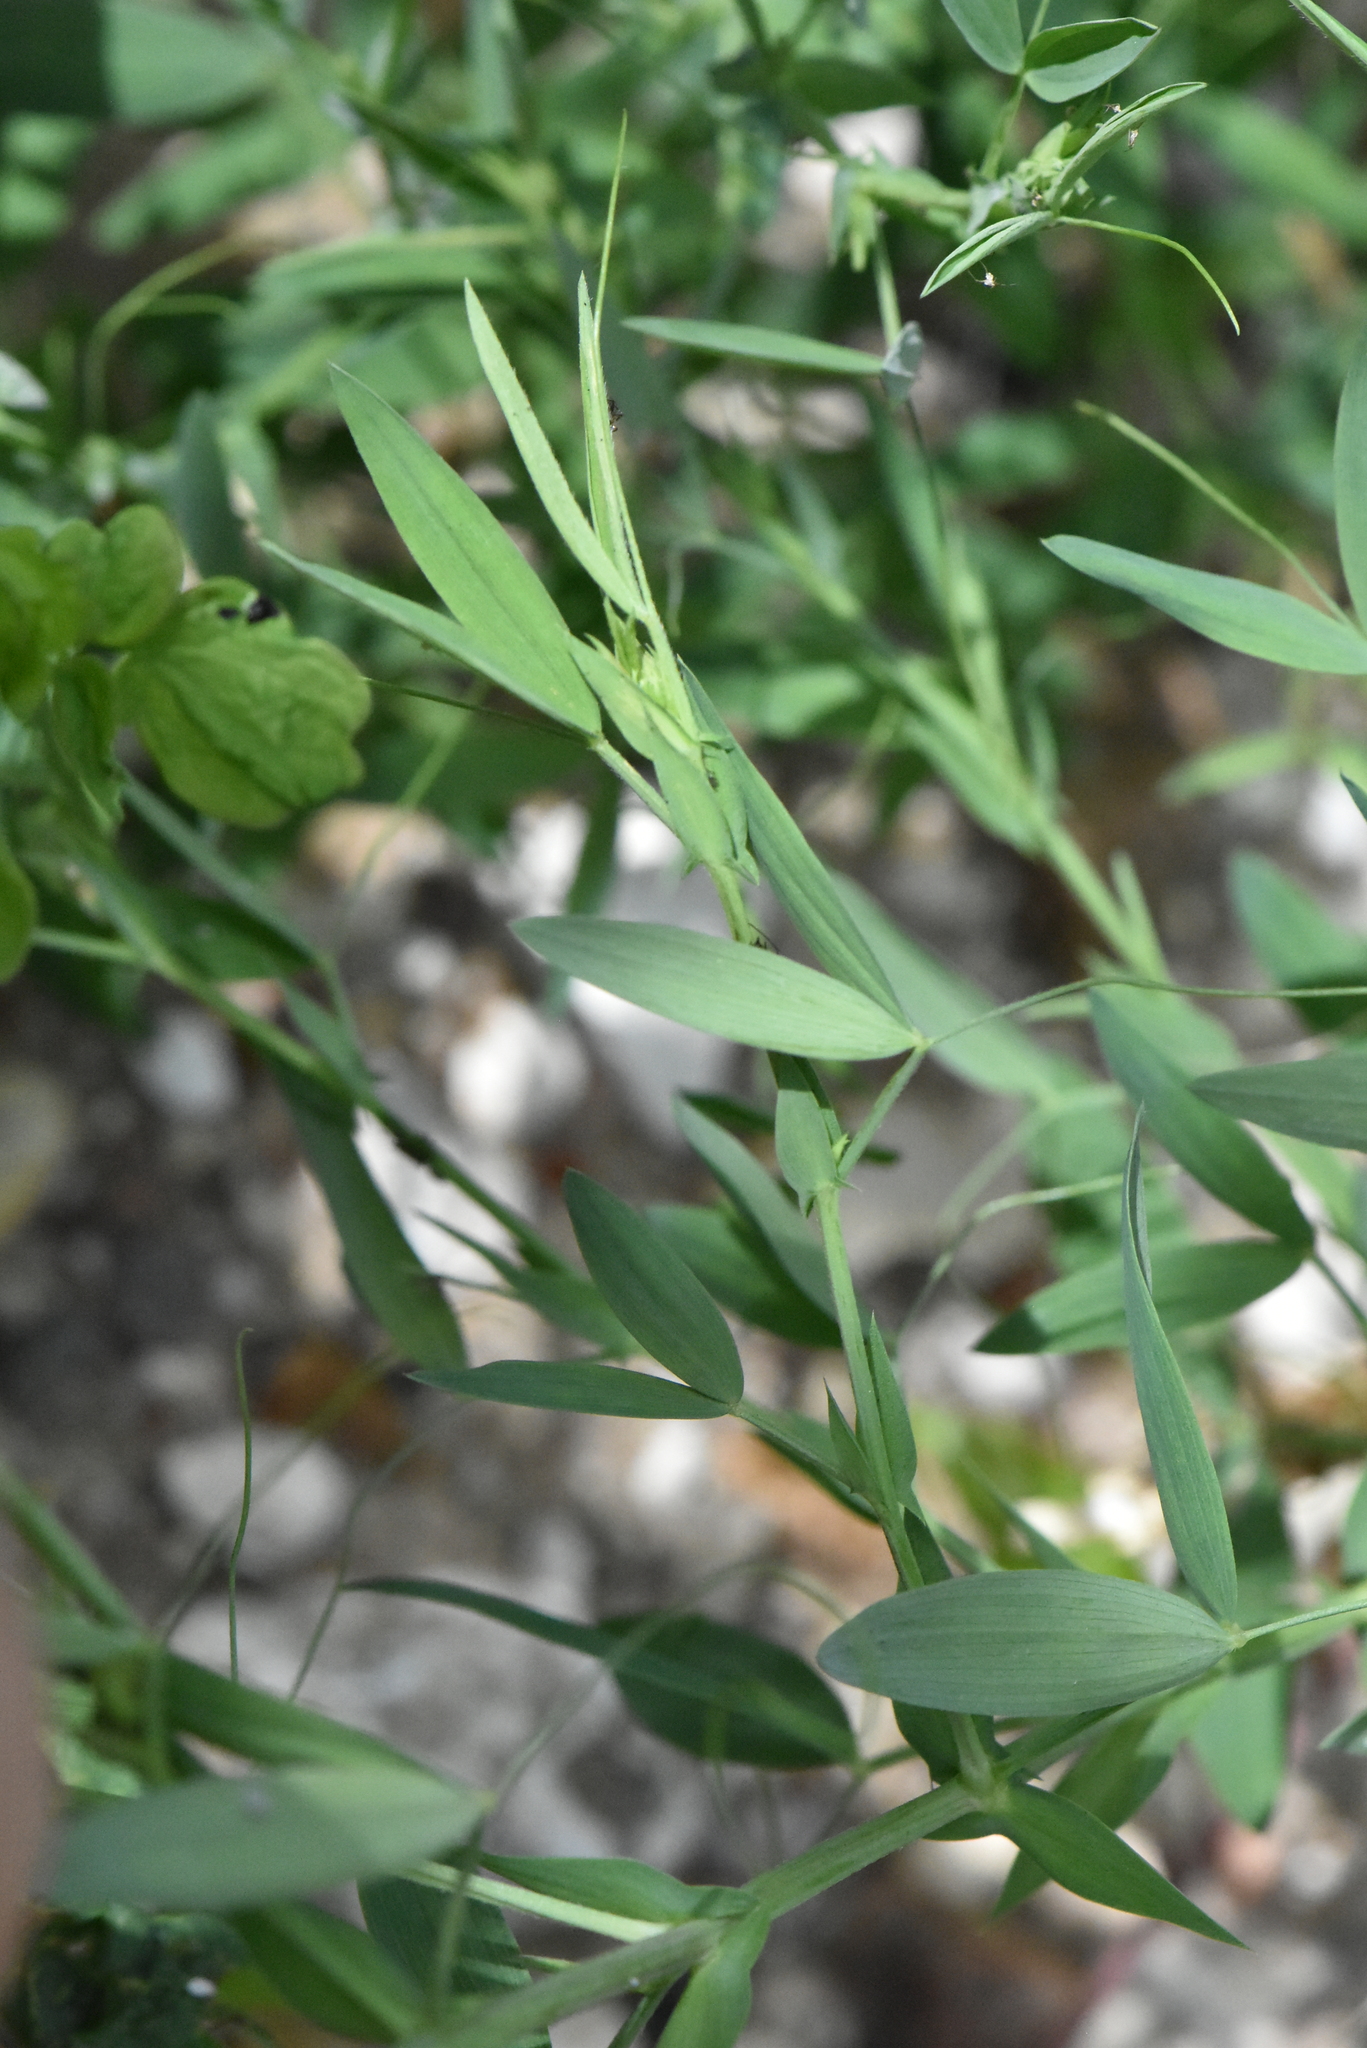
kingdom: Plantae
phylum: Tracheophyta
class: Magnoliopsida
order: Fabales
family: Fabaceae
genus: Lathyrus
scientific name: Lathyrus pratensis
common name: Meadow vetchling
